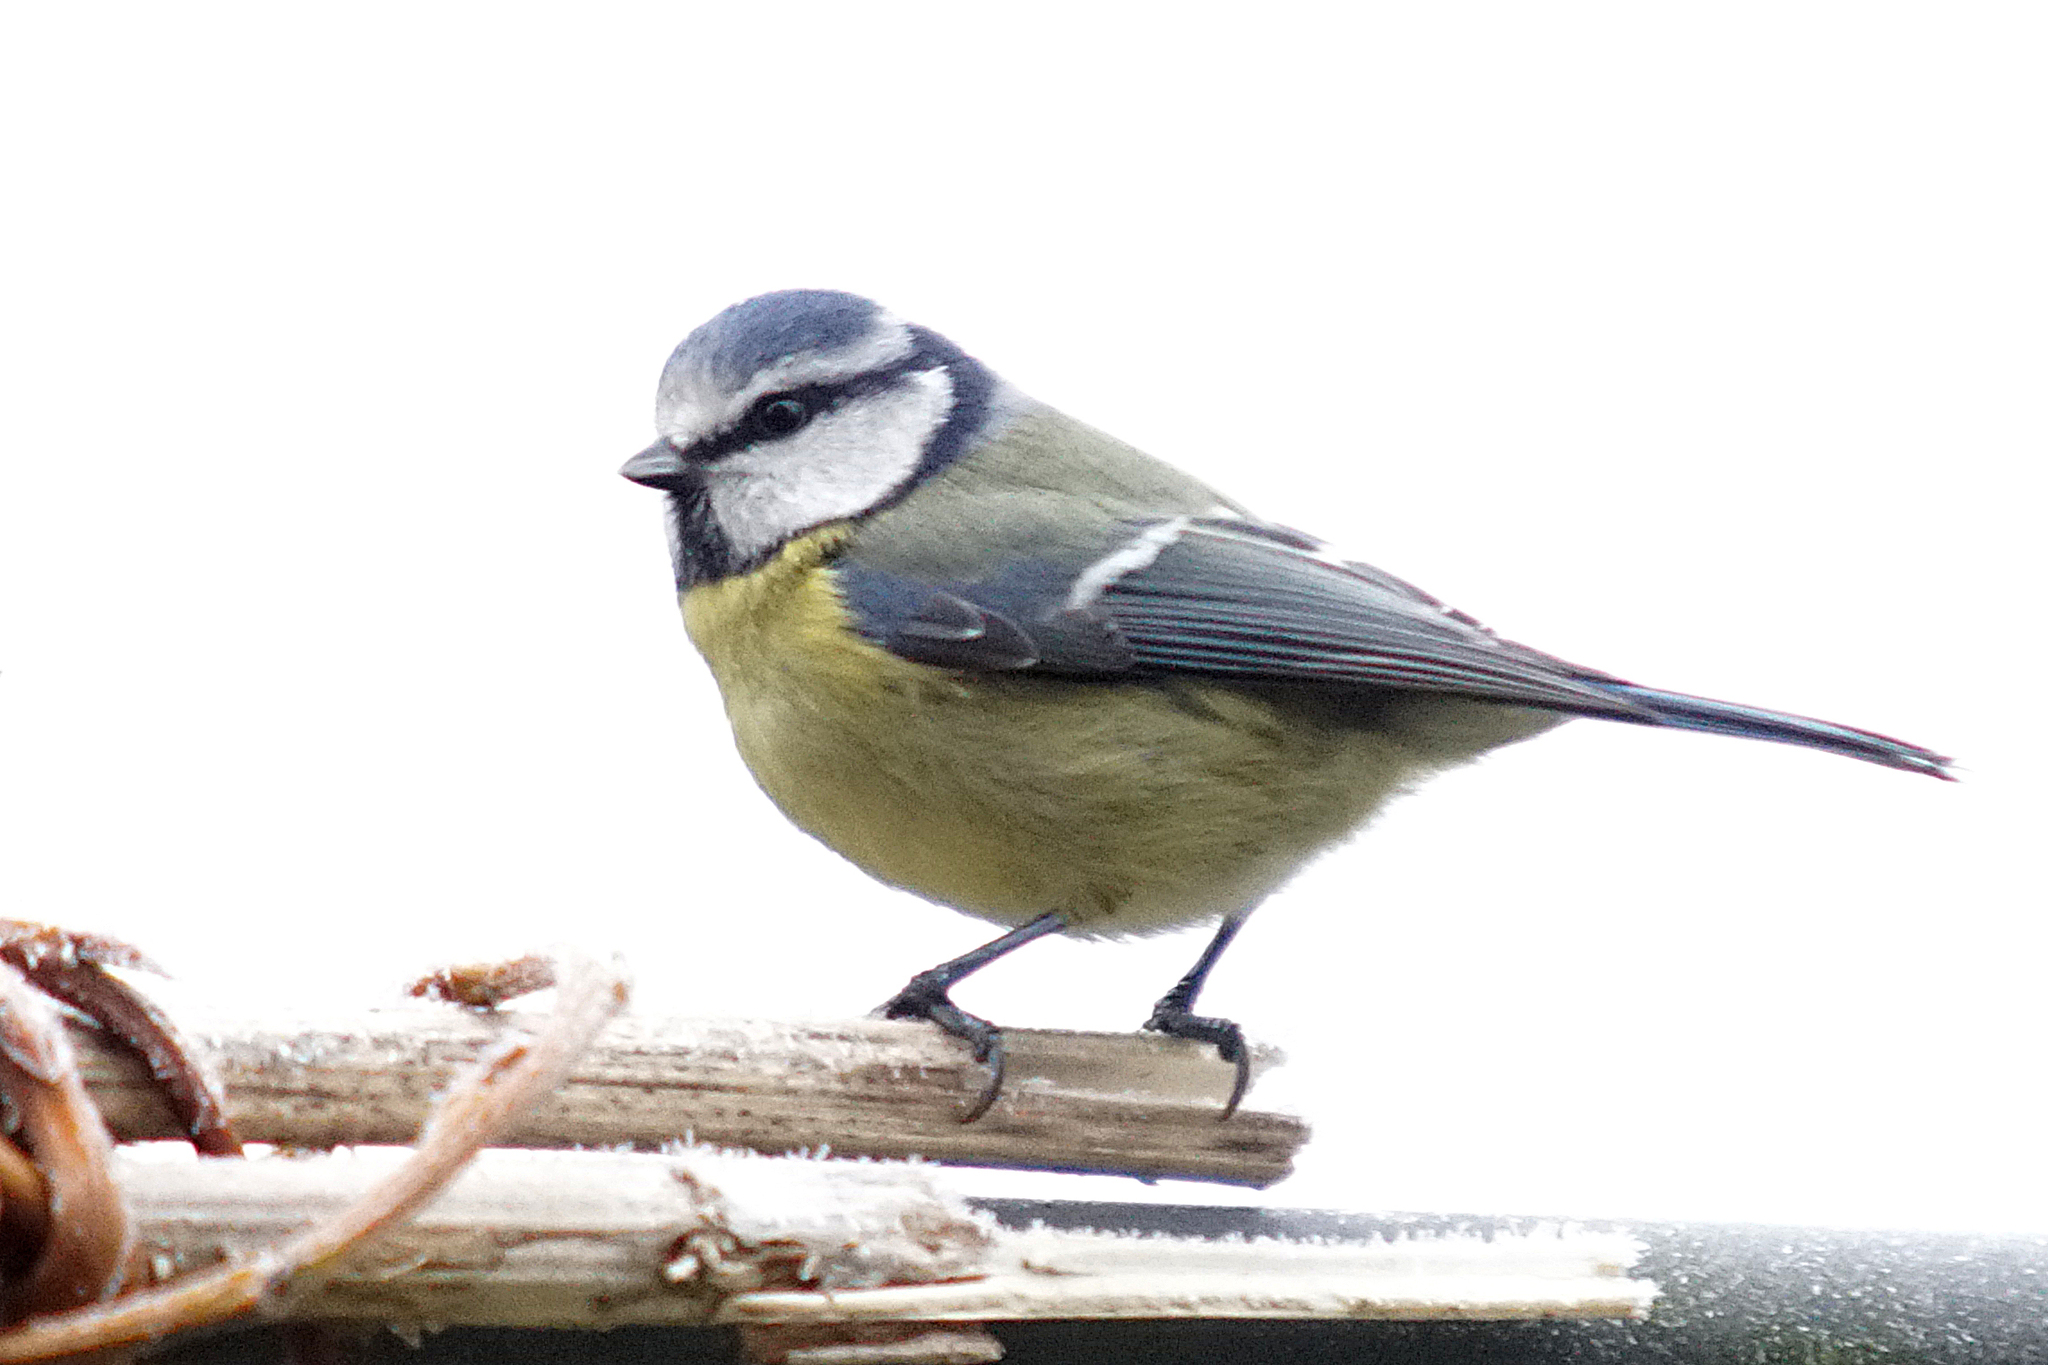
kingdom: Animalia
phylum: Chordata
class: Aves
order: Passeriformes
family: Paridae
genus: Cyanistes
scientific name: Cyanistes caeruleus
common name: Eurasian blue tit
